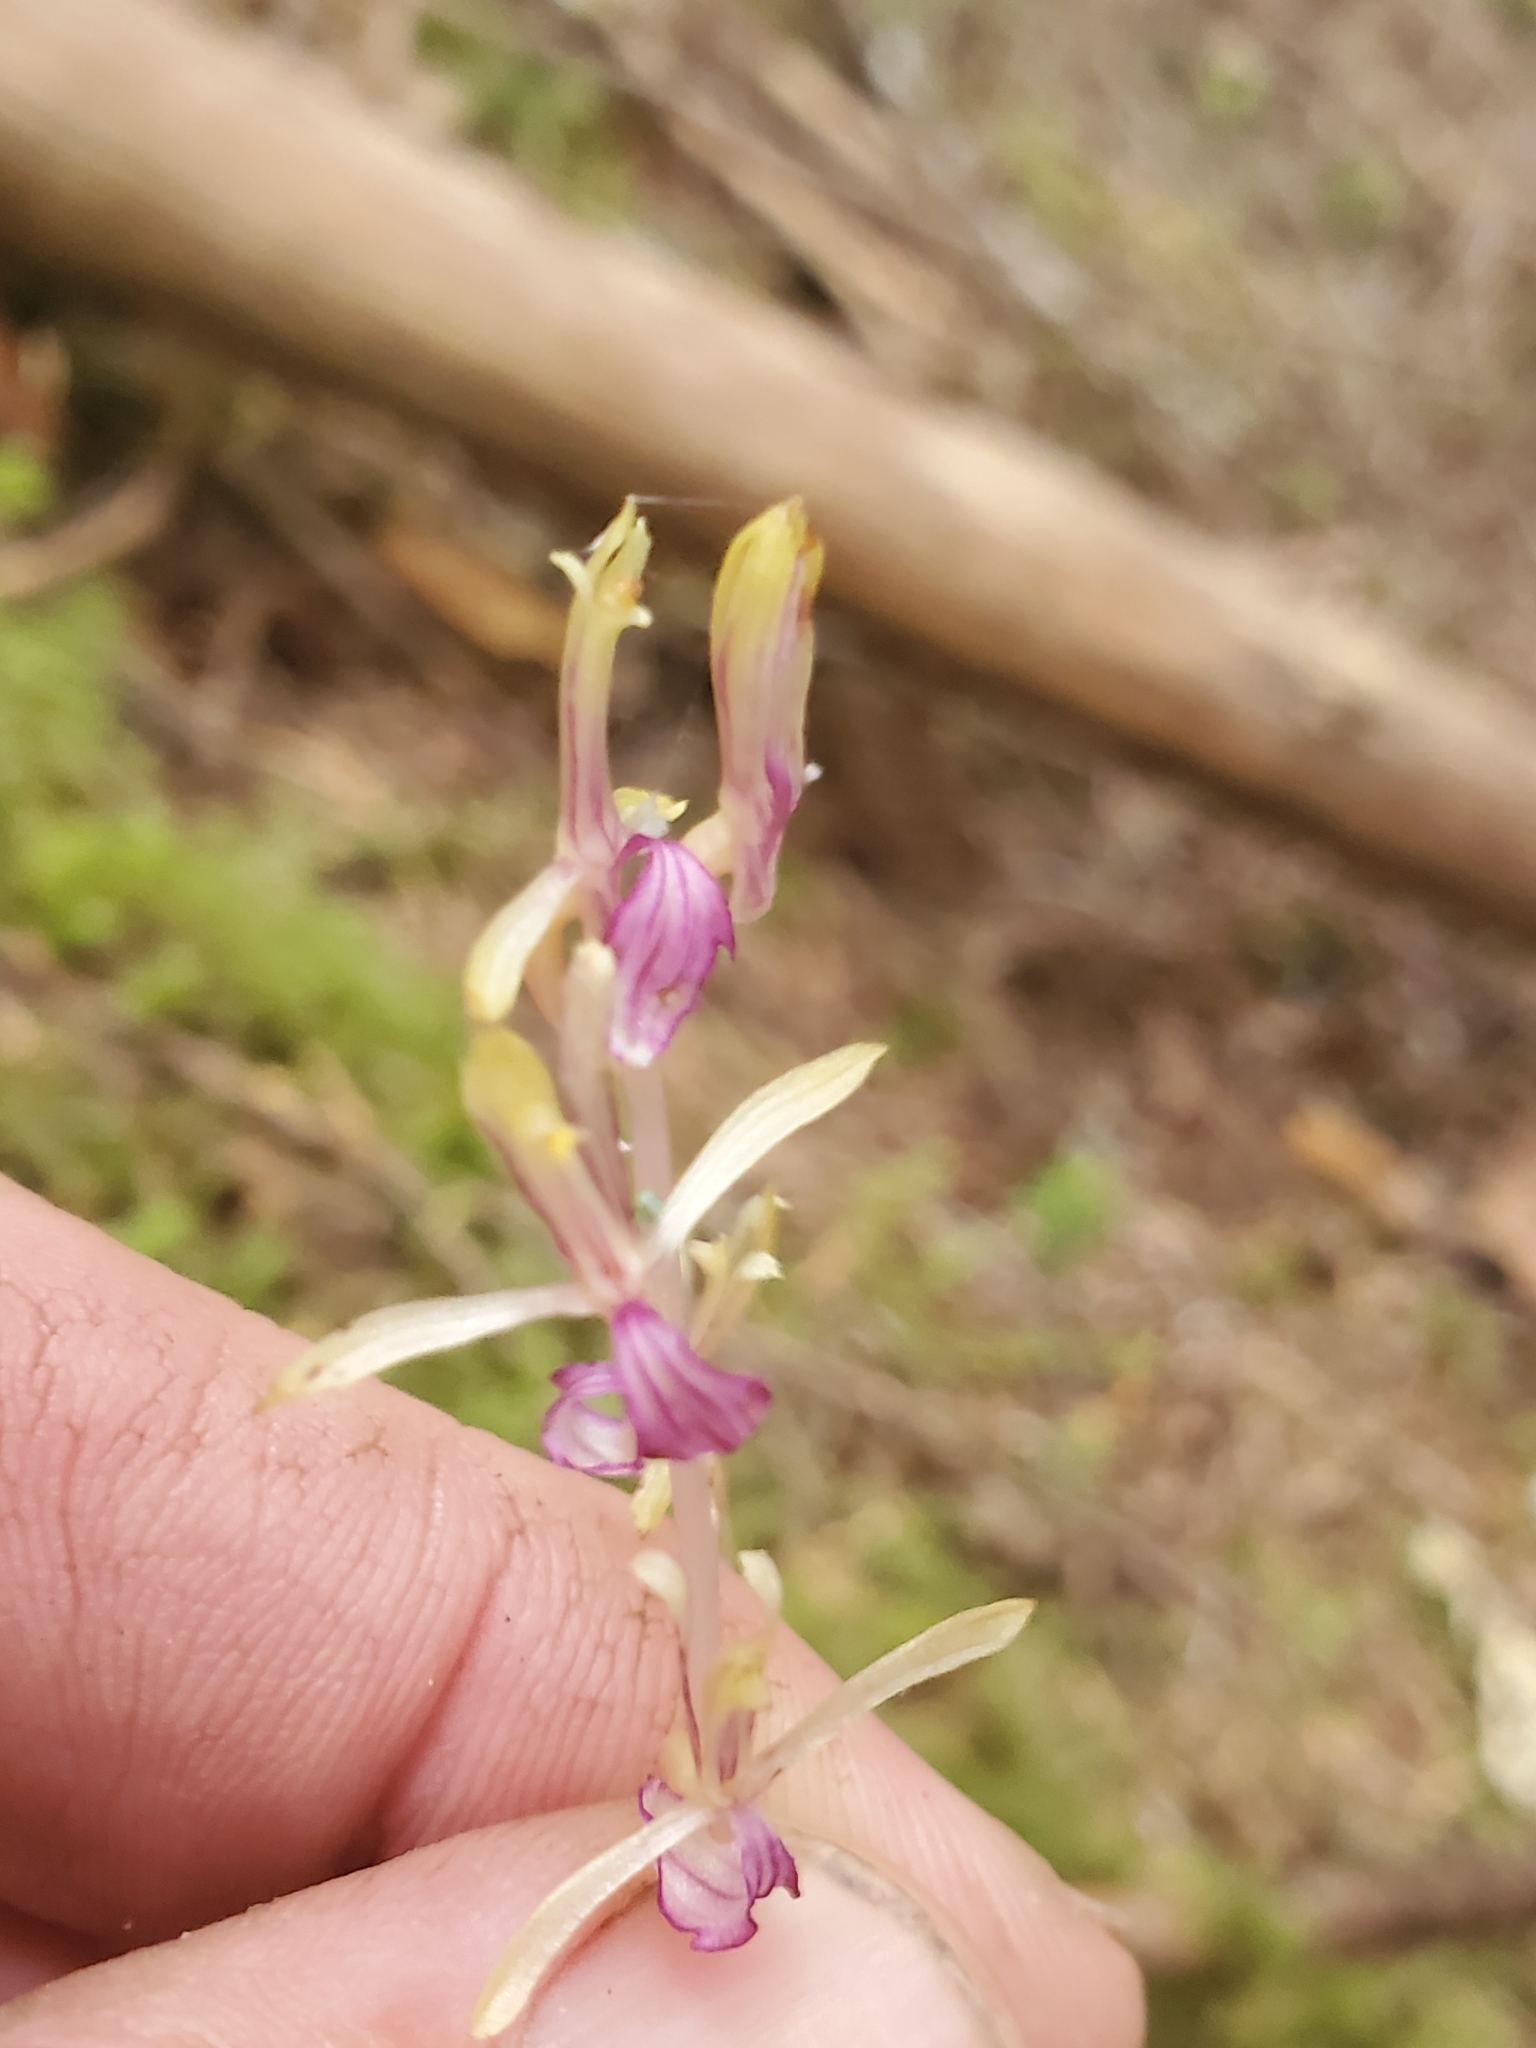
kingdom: Plantae
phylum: Tracheophyta
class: Liliopsida
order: Asparagales
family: Orchidaceae
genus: Corallorhiza
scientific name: Corallorhiza mertensiana
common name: Pacific coralroot
